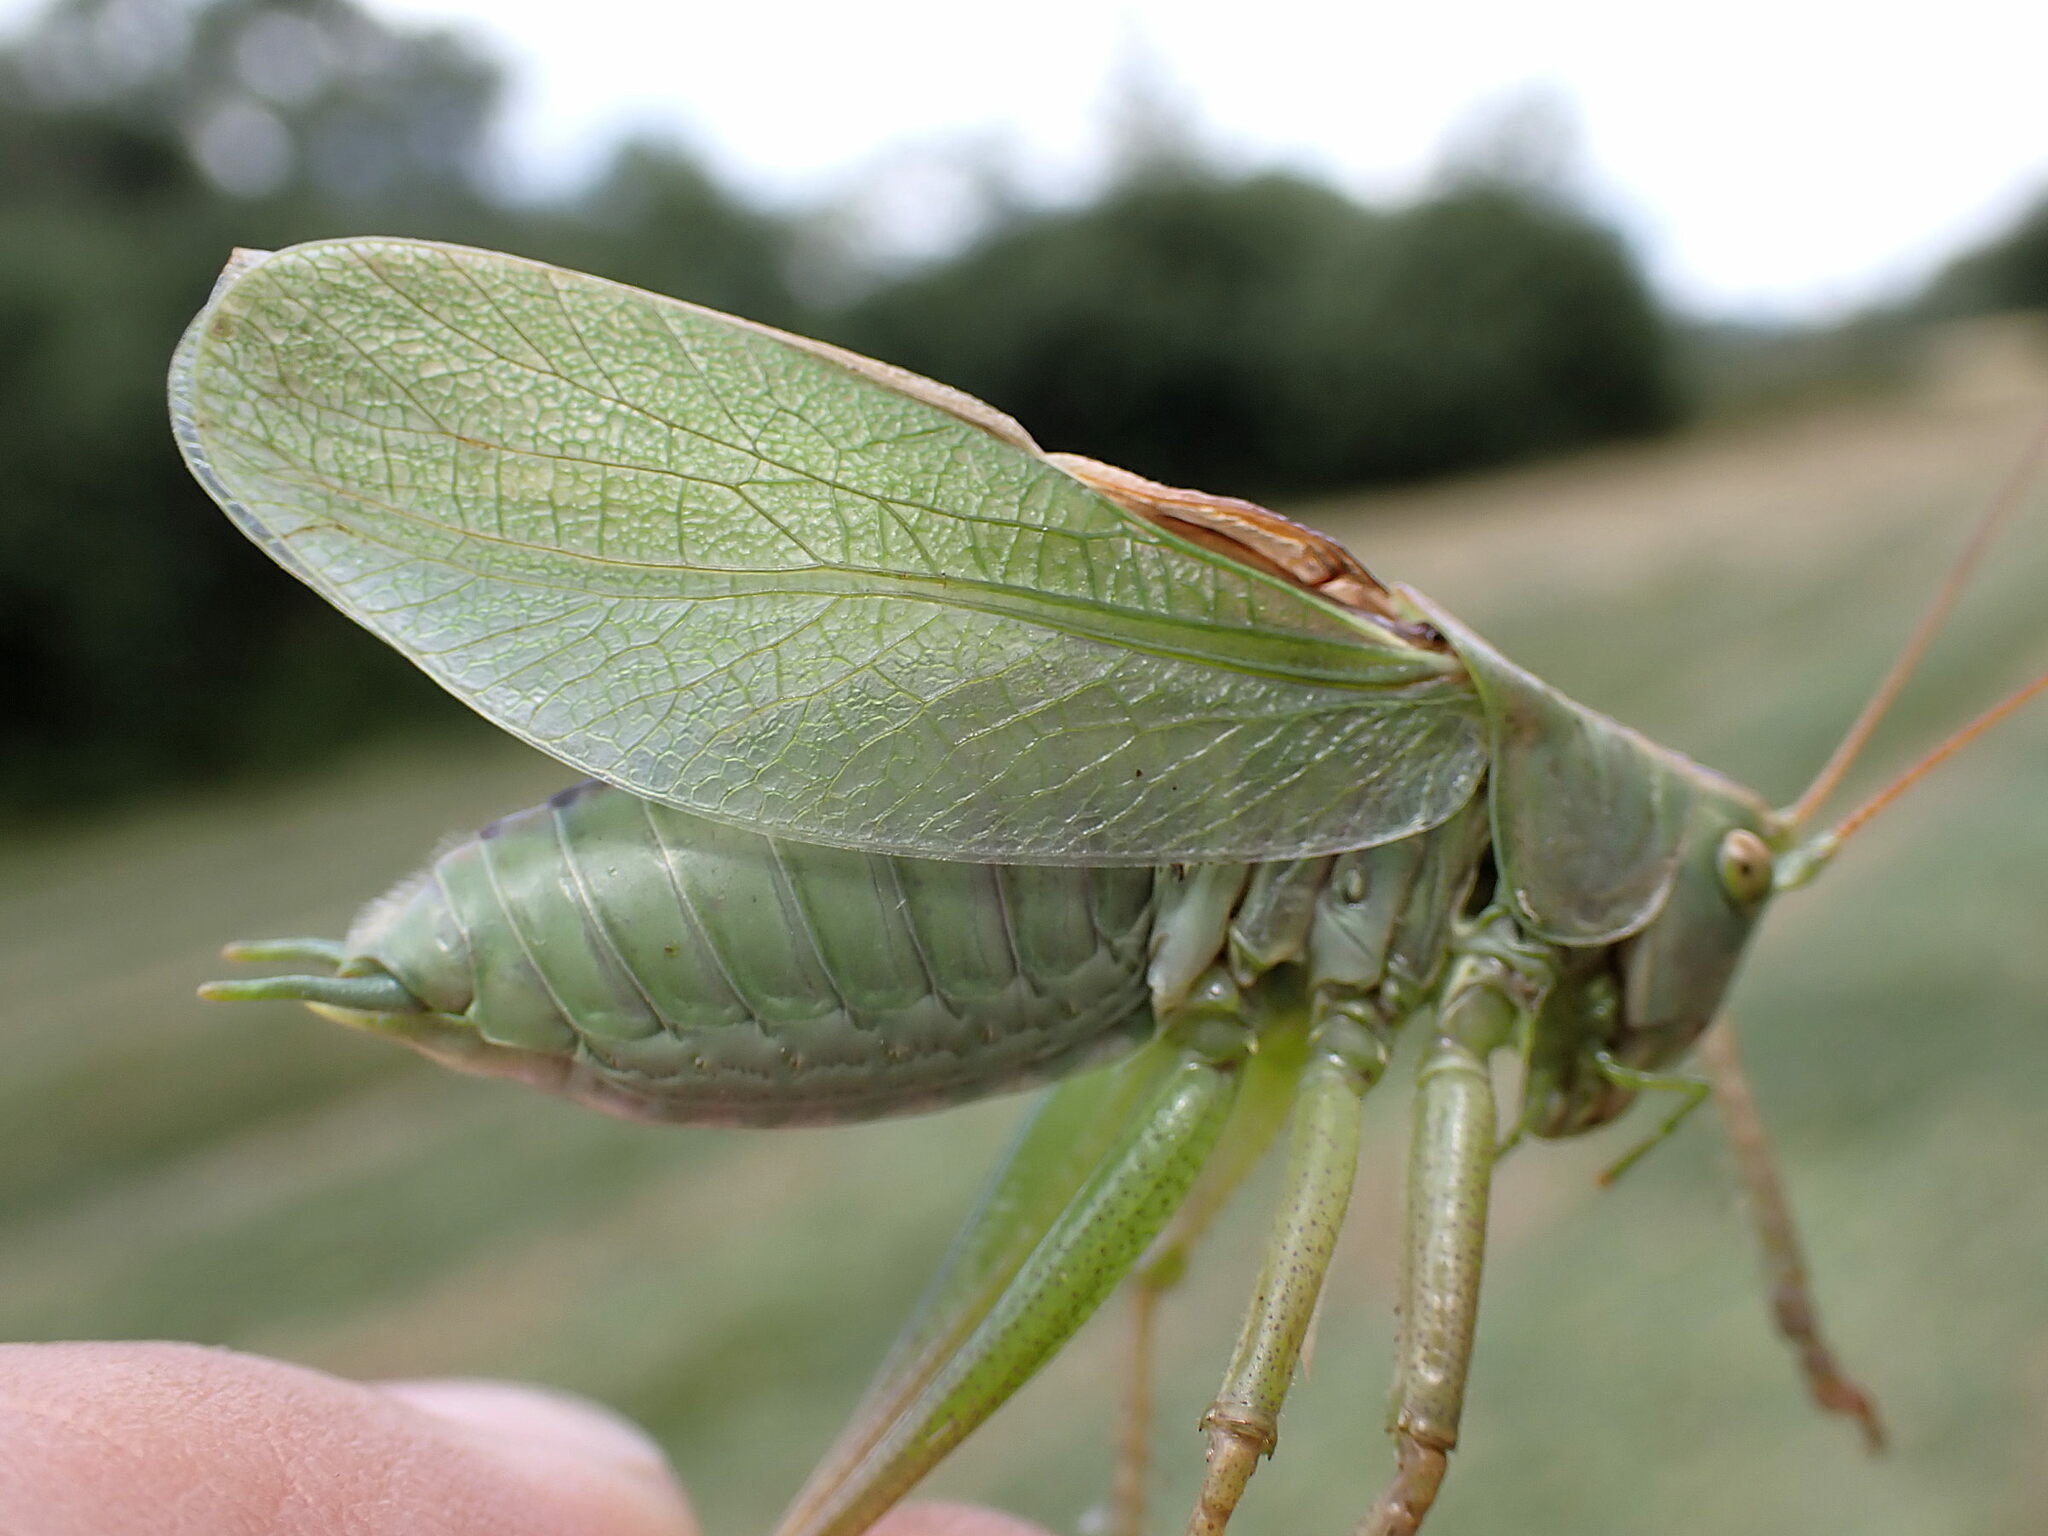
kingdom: Animalia
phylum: Arthropoda
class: Insecta
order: Orthoptera
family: Tettigoniidae
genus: Tettigonia
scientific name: Tettigonia cantans
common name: Upland green bush-cricket
